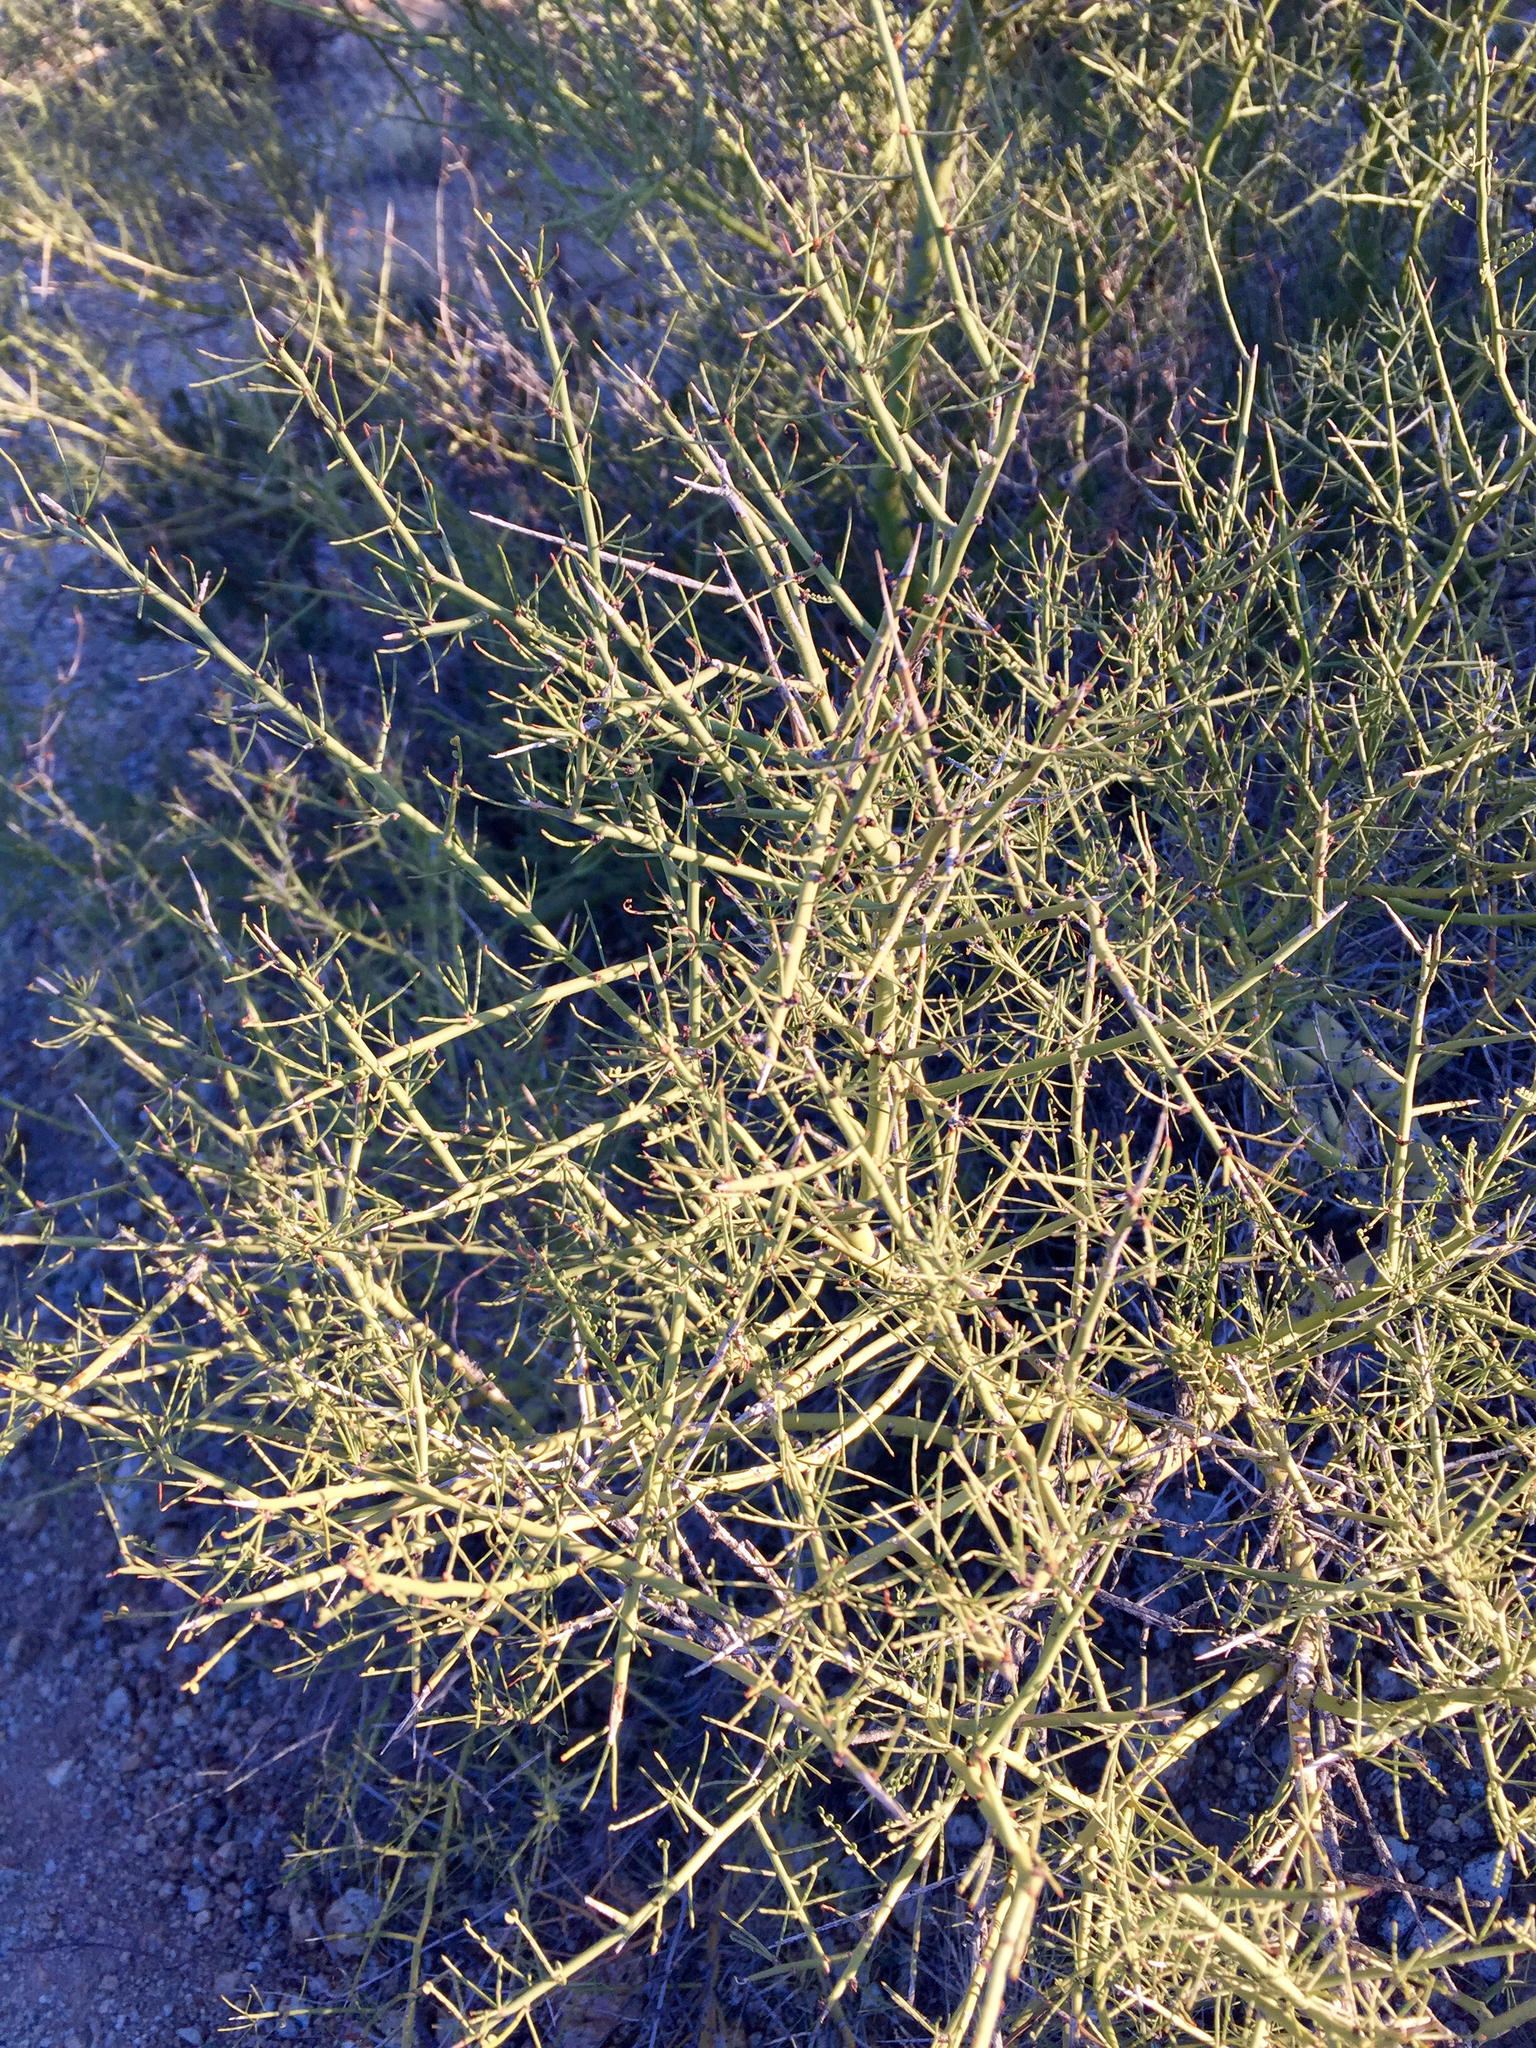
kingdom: Plantae
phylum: Tracheophyta
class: Magnoliopsida
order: Fabales
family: Fabaceae
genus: Parkinsonia
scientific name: Parkinsonia microphylla
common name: Yellow paloverde
